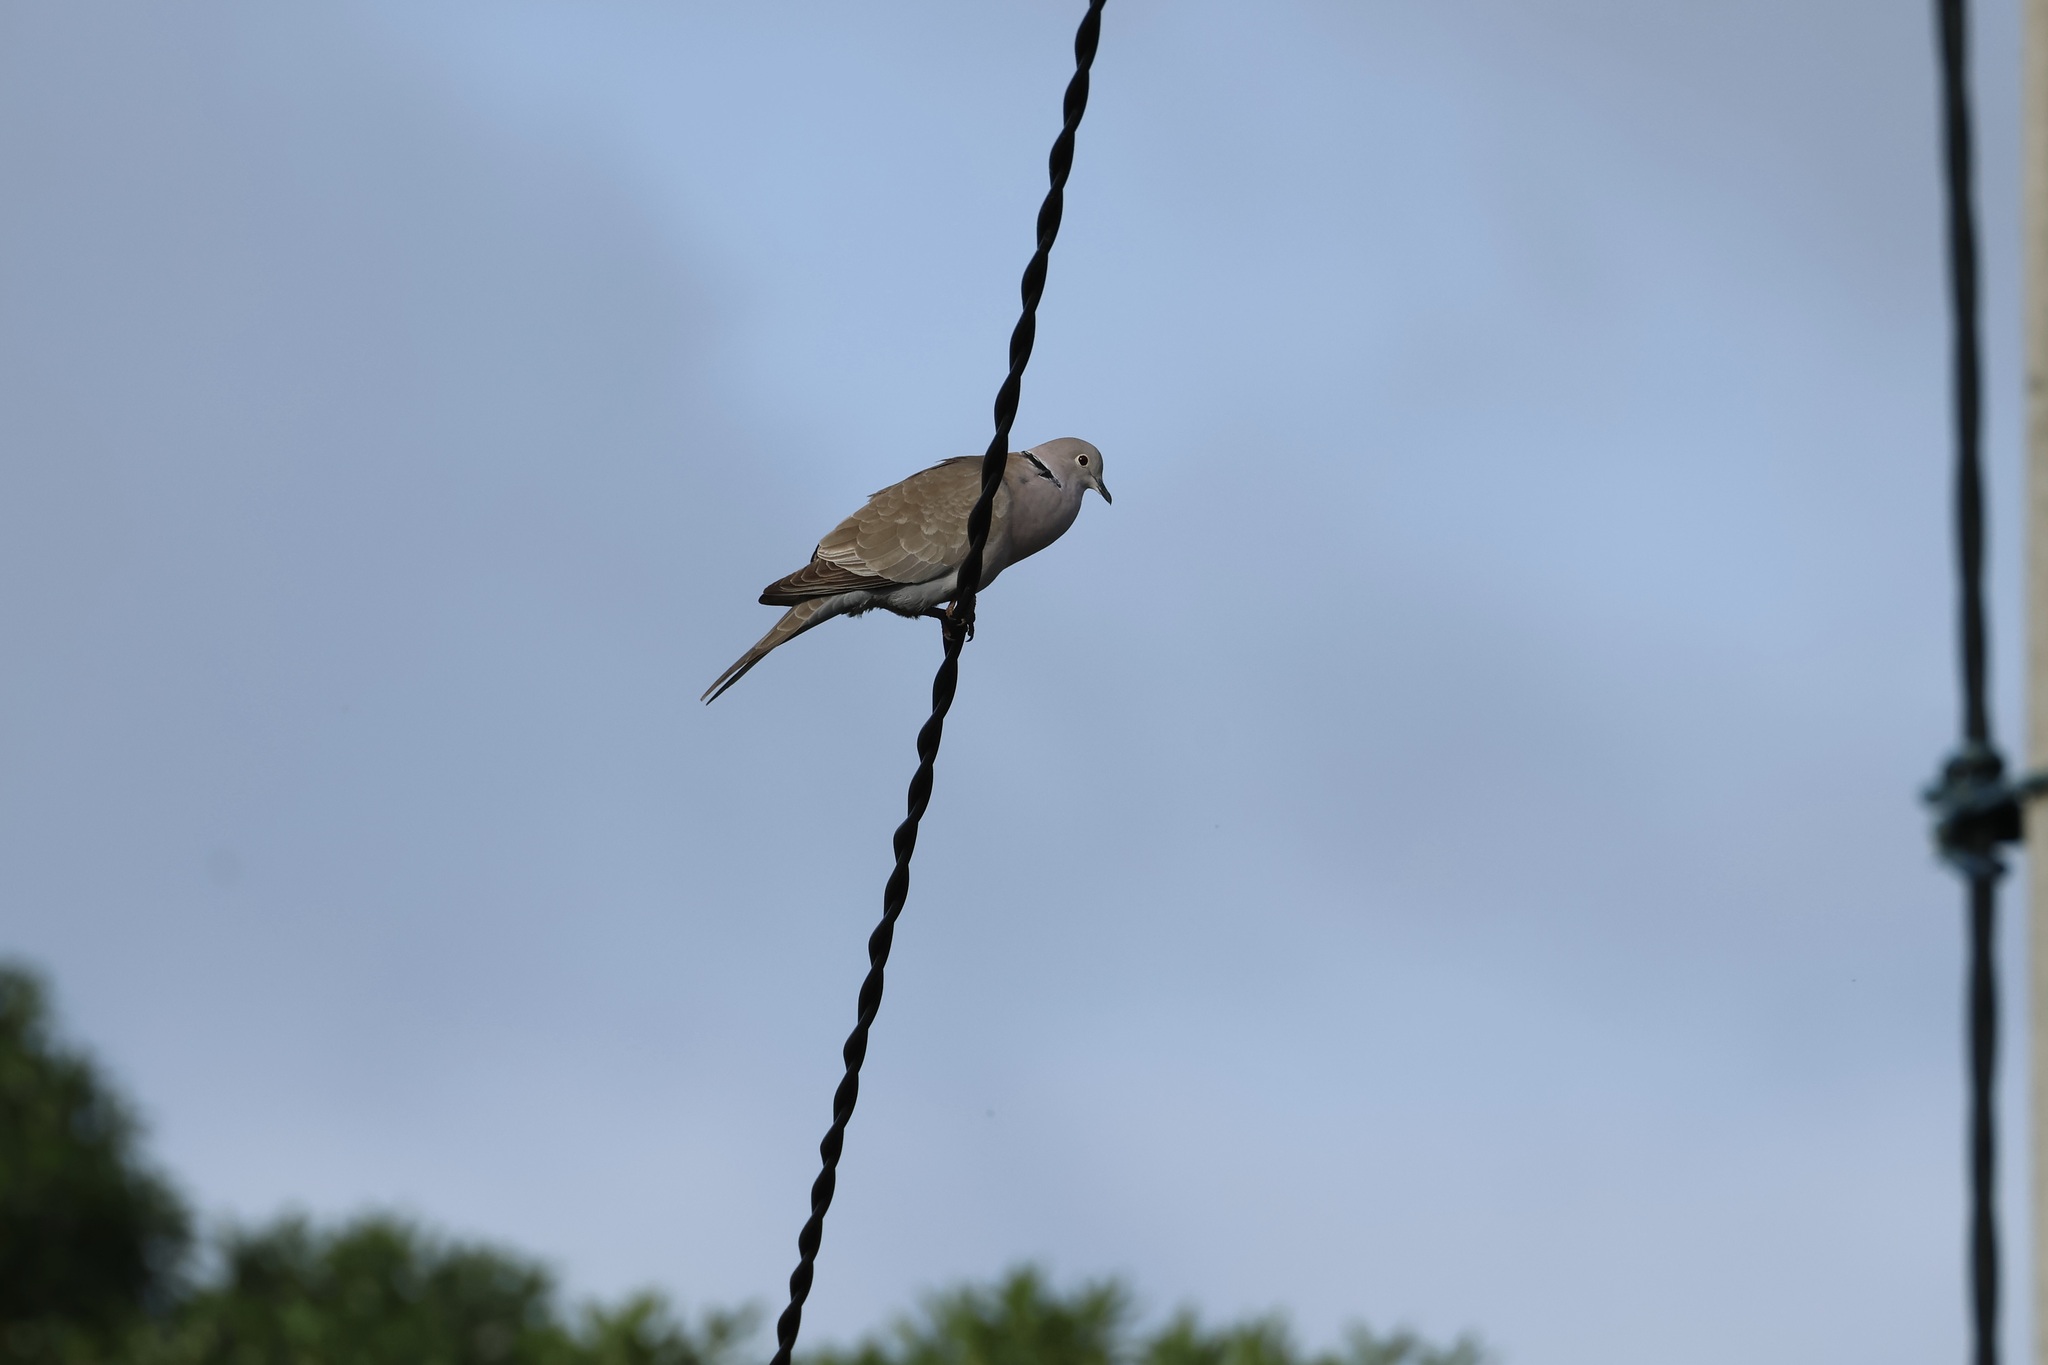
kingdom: Animalia
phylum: Chordata
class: Aves
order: Columbiformes
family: Columbidae
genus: Streptopelia
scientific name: Streptopelia decaocto
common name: Eurasian collared dove
